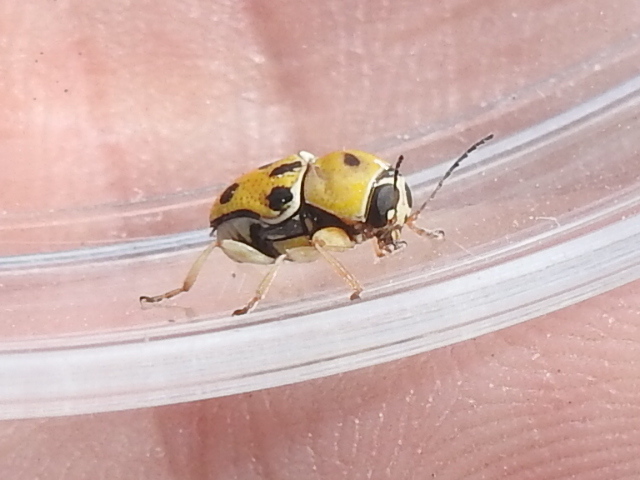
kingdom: Animalia
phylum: Arthropoda
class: Insecta
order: Coleoptera
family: Chrysomelidae
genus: Griburius
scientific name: Griburius rileyi
